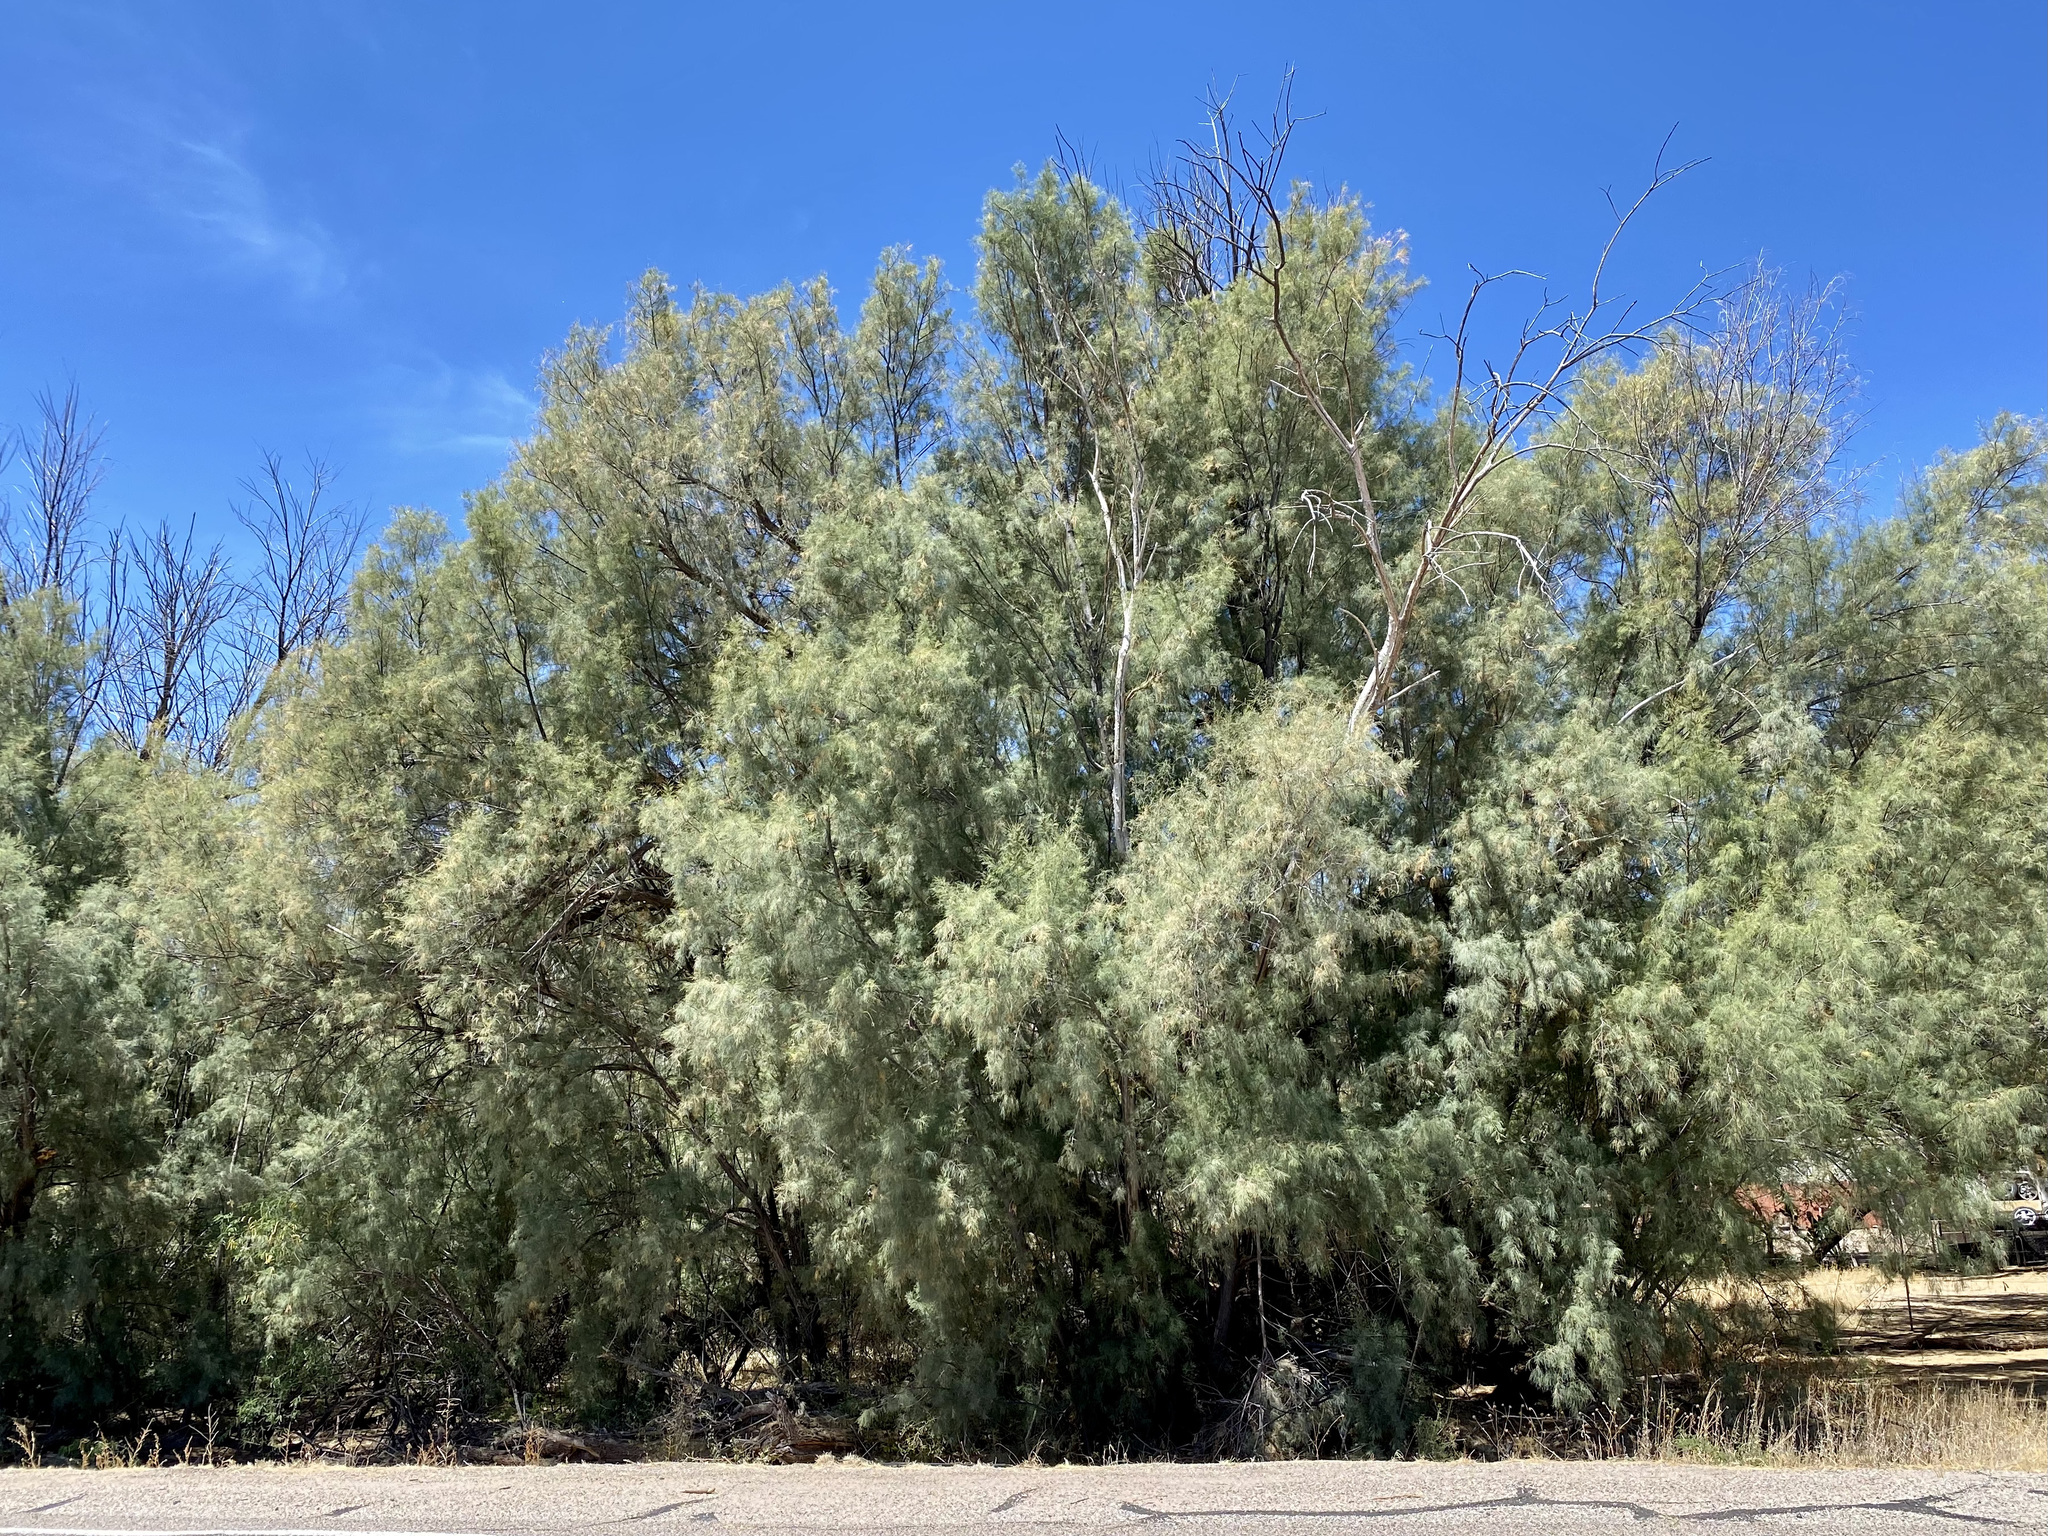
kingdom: Plantae
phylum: Tracheophyta
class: Magnoliopsida
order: Caryophyllales
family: Tamaricaceae
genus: Tamarix
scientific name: Tamarix aphylla
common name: Athel tamarisk
